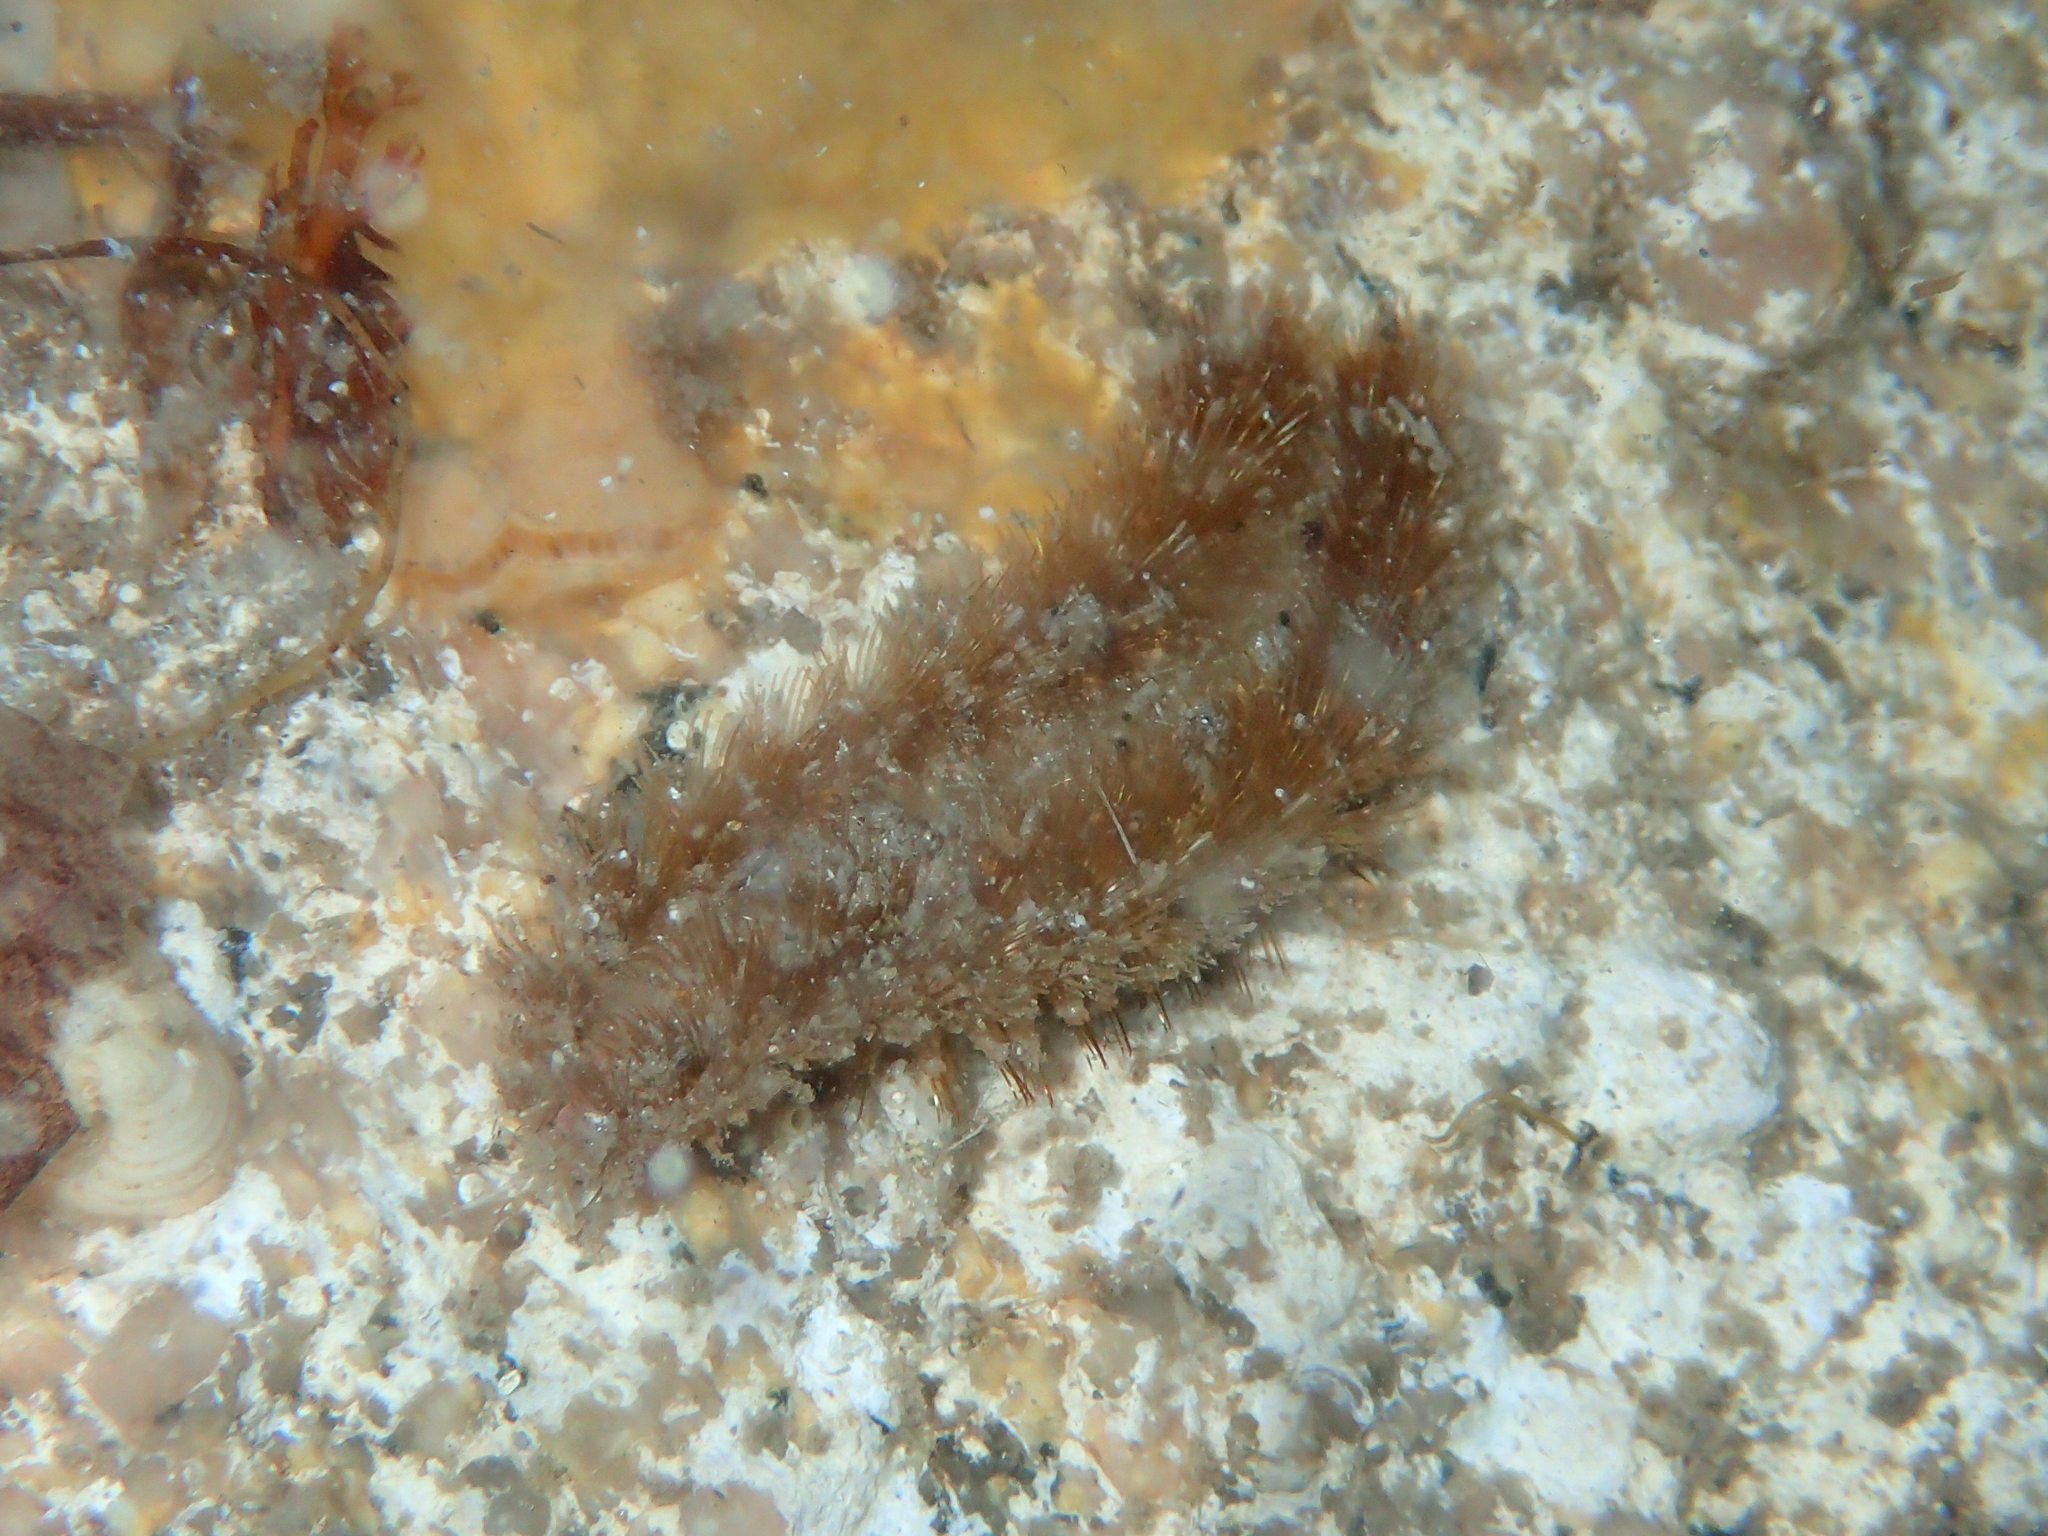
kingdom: Animalia
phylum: Annelida
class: Polychaeta
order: Phyllodocida
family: Aphroditidae
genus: Aphrodita
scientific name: Aphrodita aculeata
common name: Sea mouse
